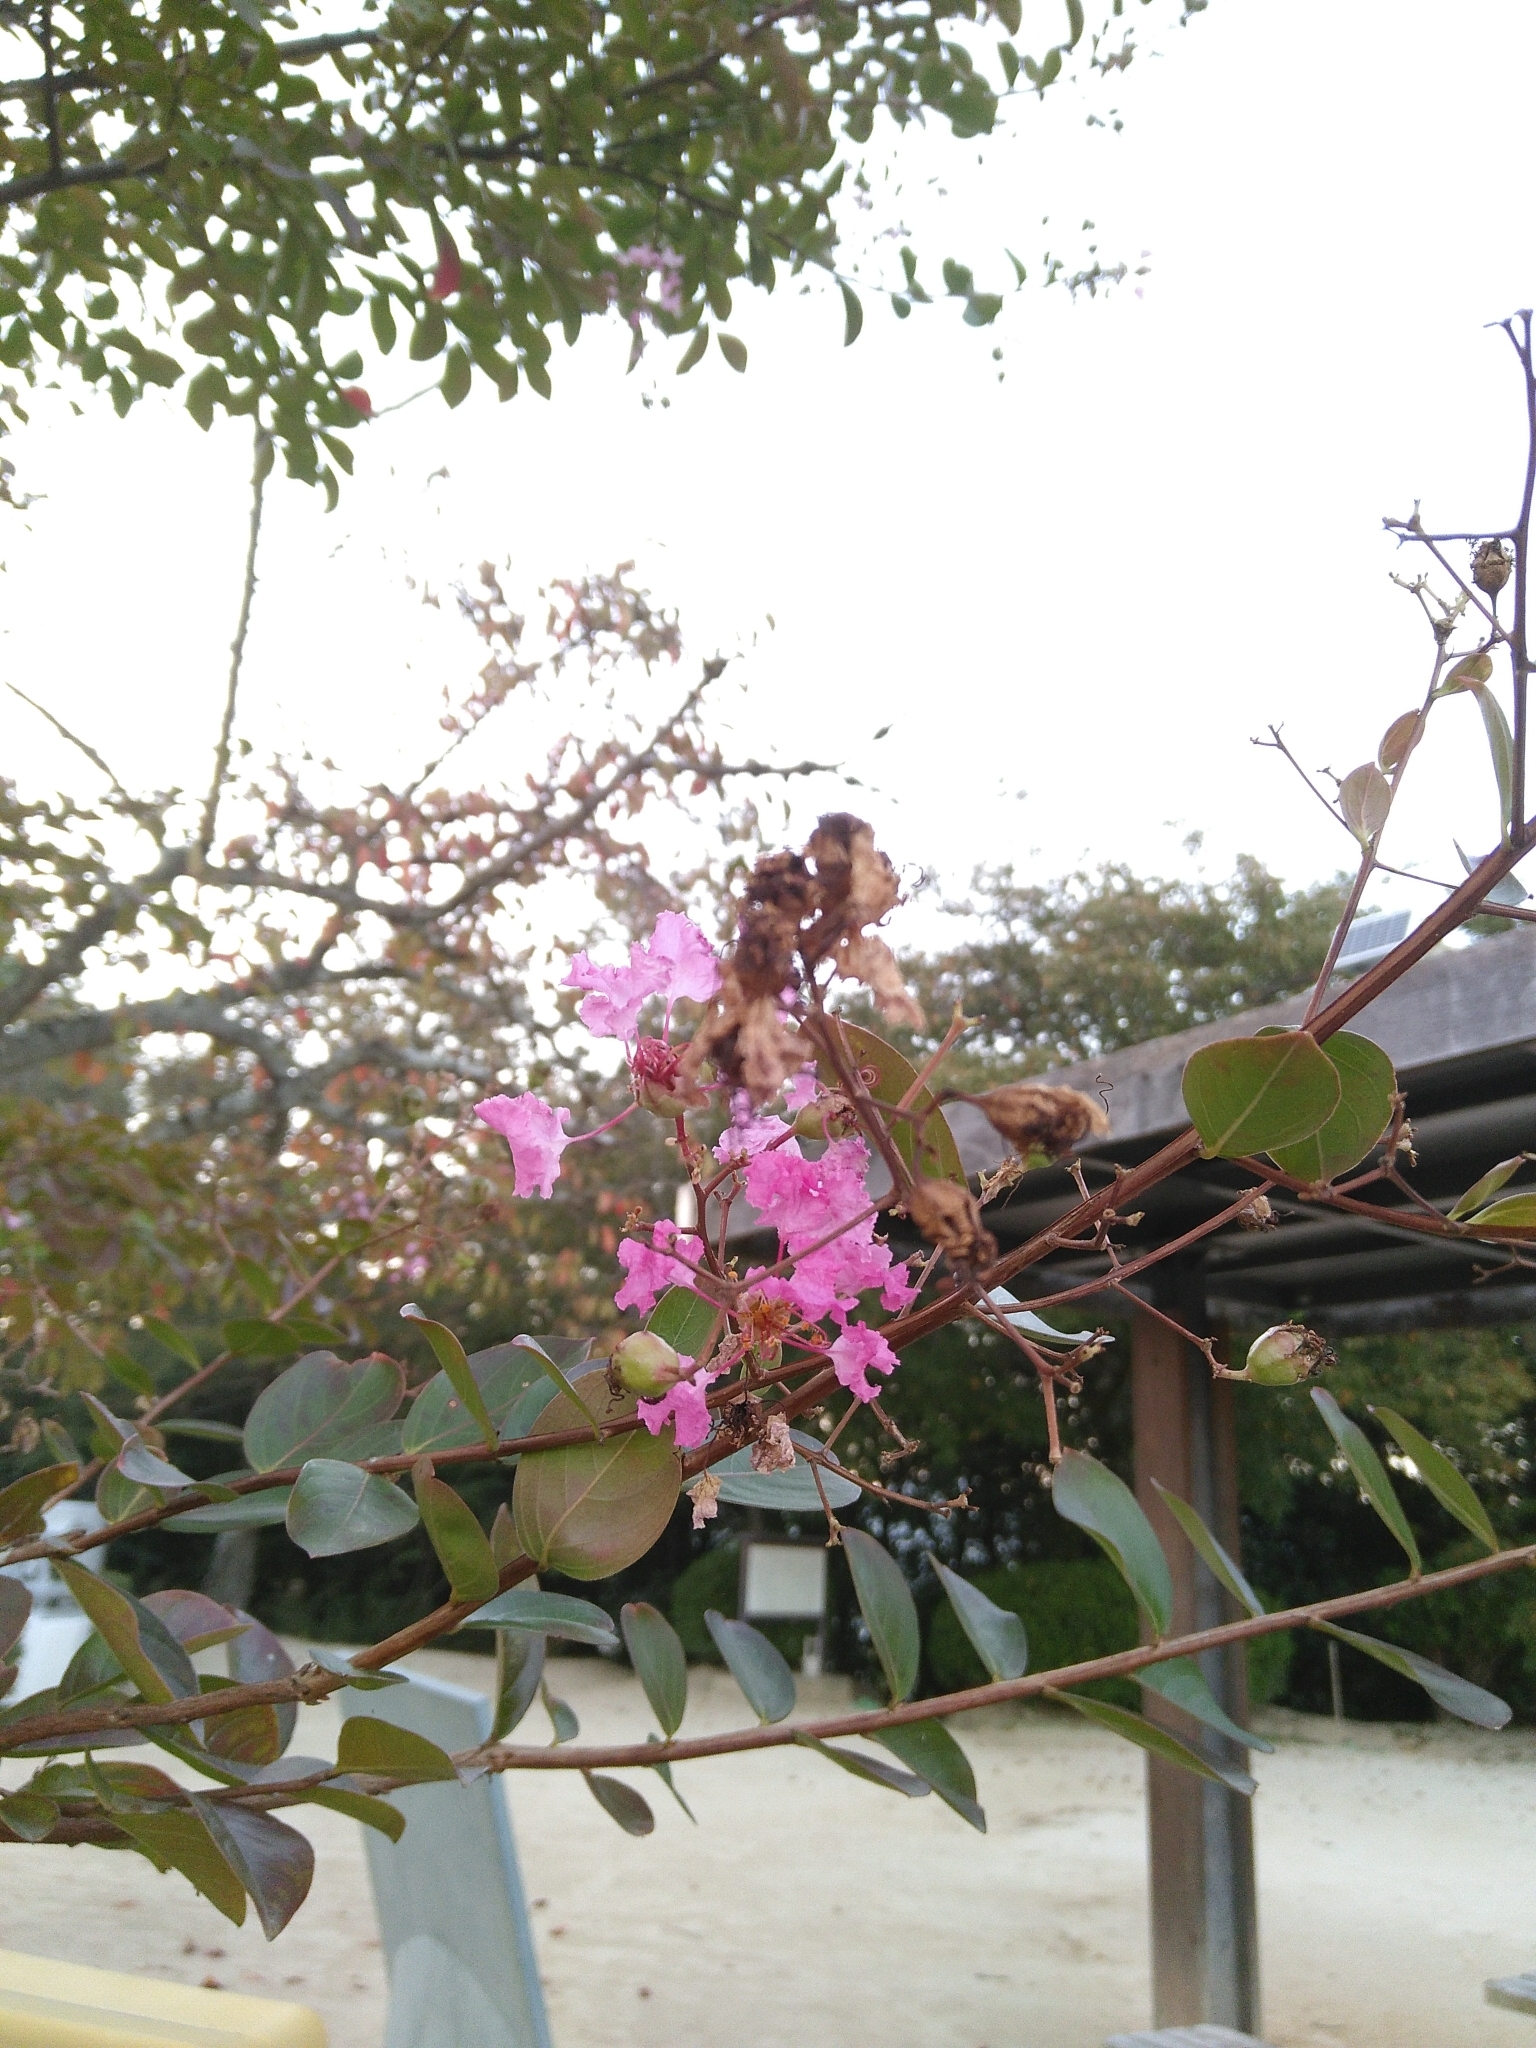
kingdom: Plantae
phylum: Tracheophyta
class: Magnoliopsida
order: Myrtales
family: Lythraceae
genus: Lagerstroemia
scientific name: Lagerstroemia indica
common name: Crape-myrtle
